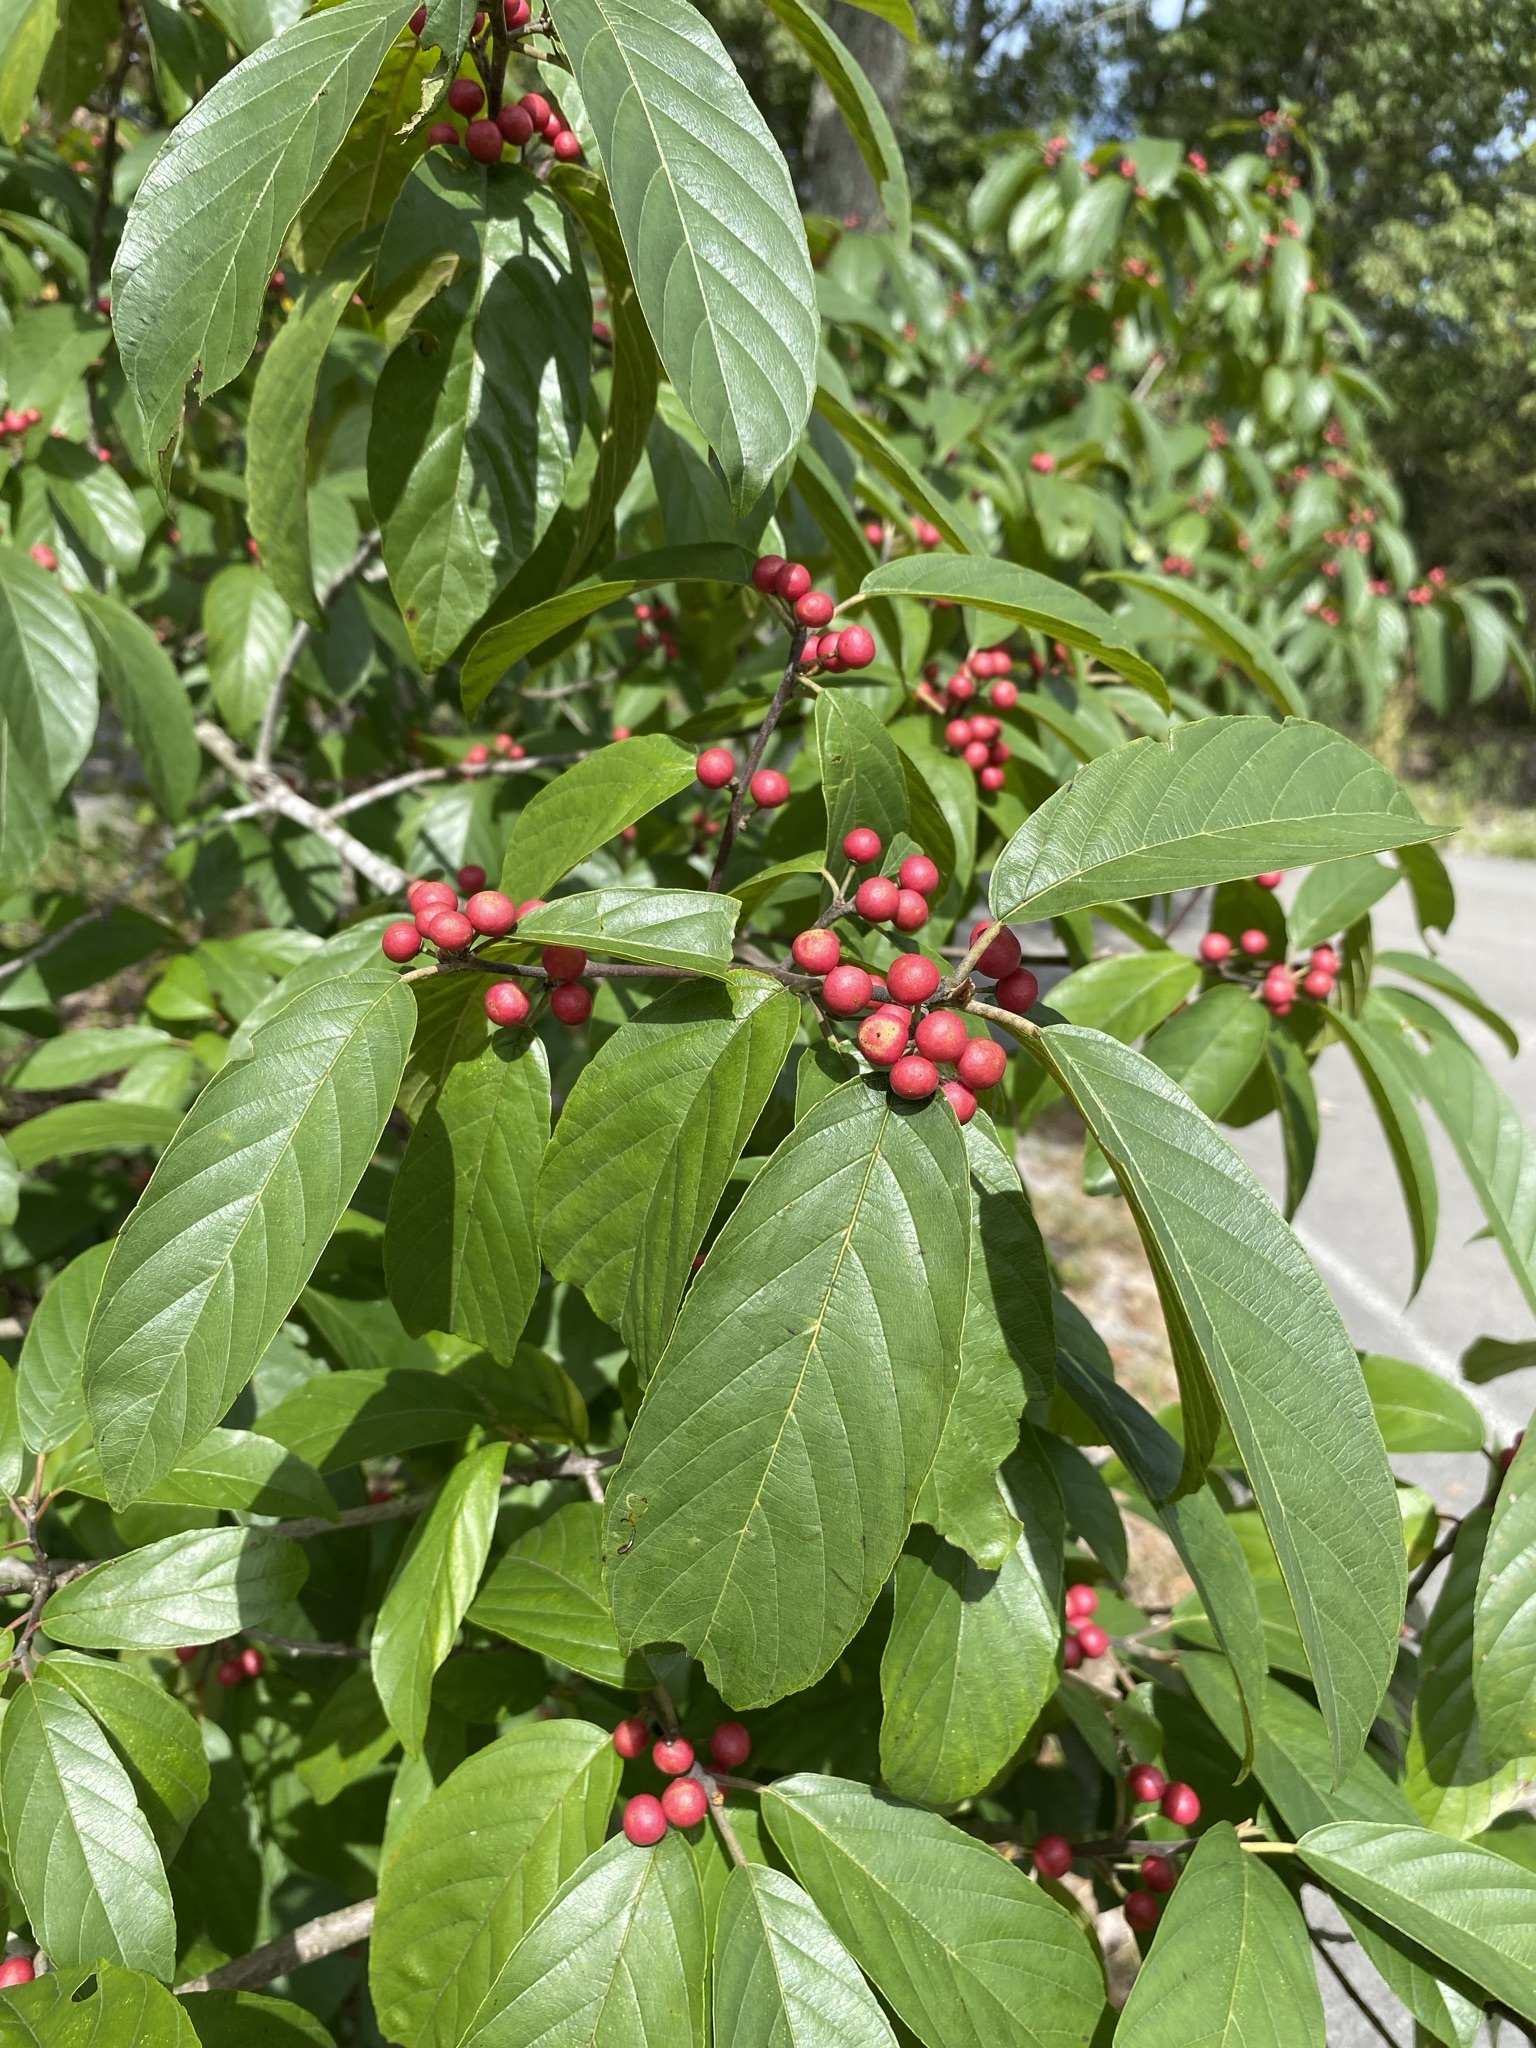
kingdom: Plantae
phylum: Tracheophyta
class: Magnoliopsida
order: Rosales
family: Rhamnaceae
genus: Frangula
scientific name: Frangula caroliniana
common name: Carolina buckthorn
